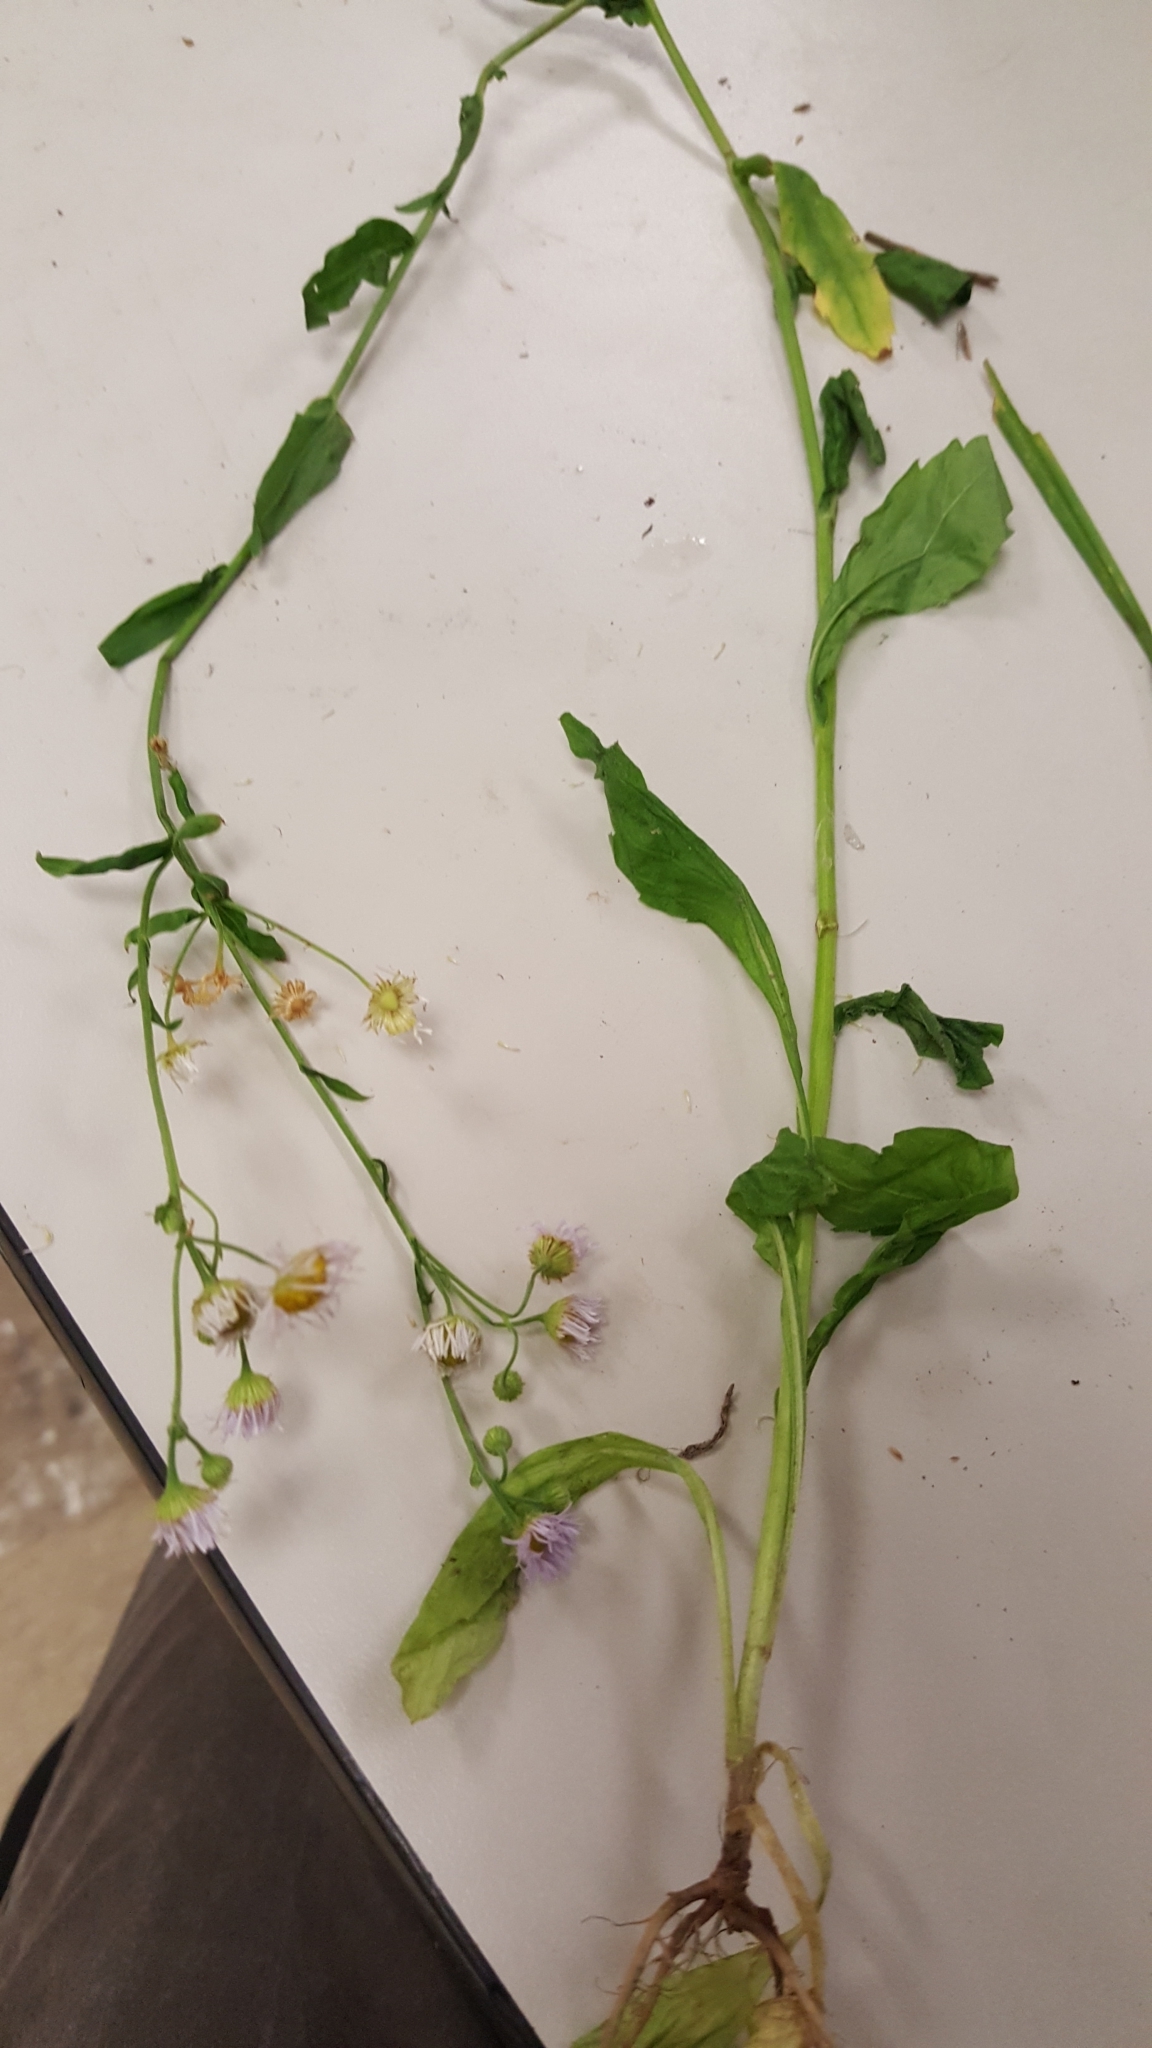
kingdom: Plantae
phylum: Tracheophyta
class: Magnoliopsida
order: Asterales
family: Asteraceae
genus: Erigeron
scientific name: Erigeron annuus
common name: Tall fleabane
